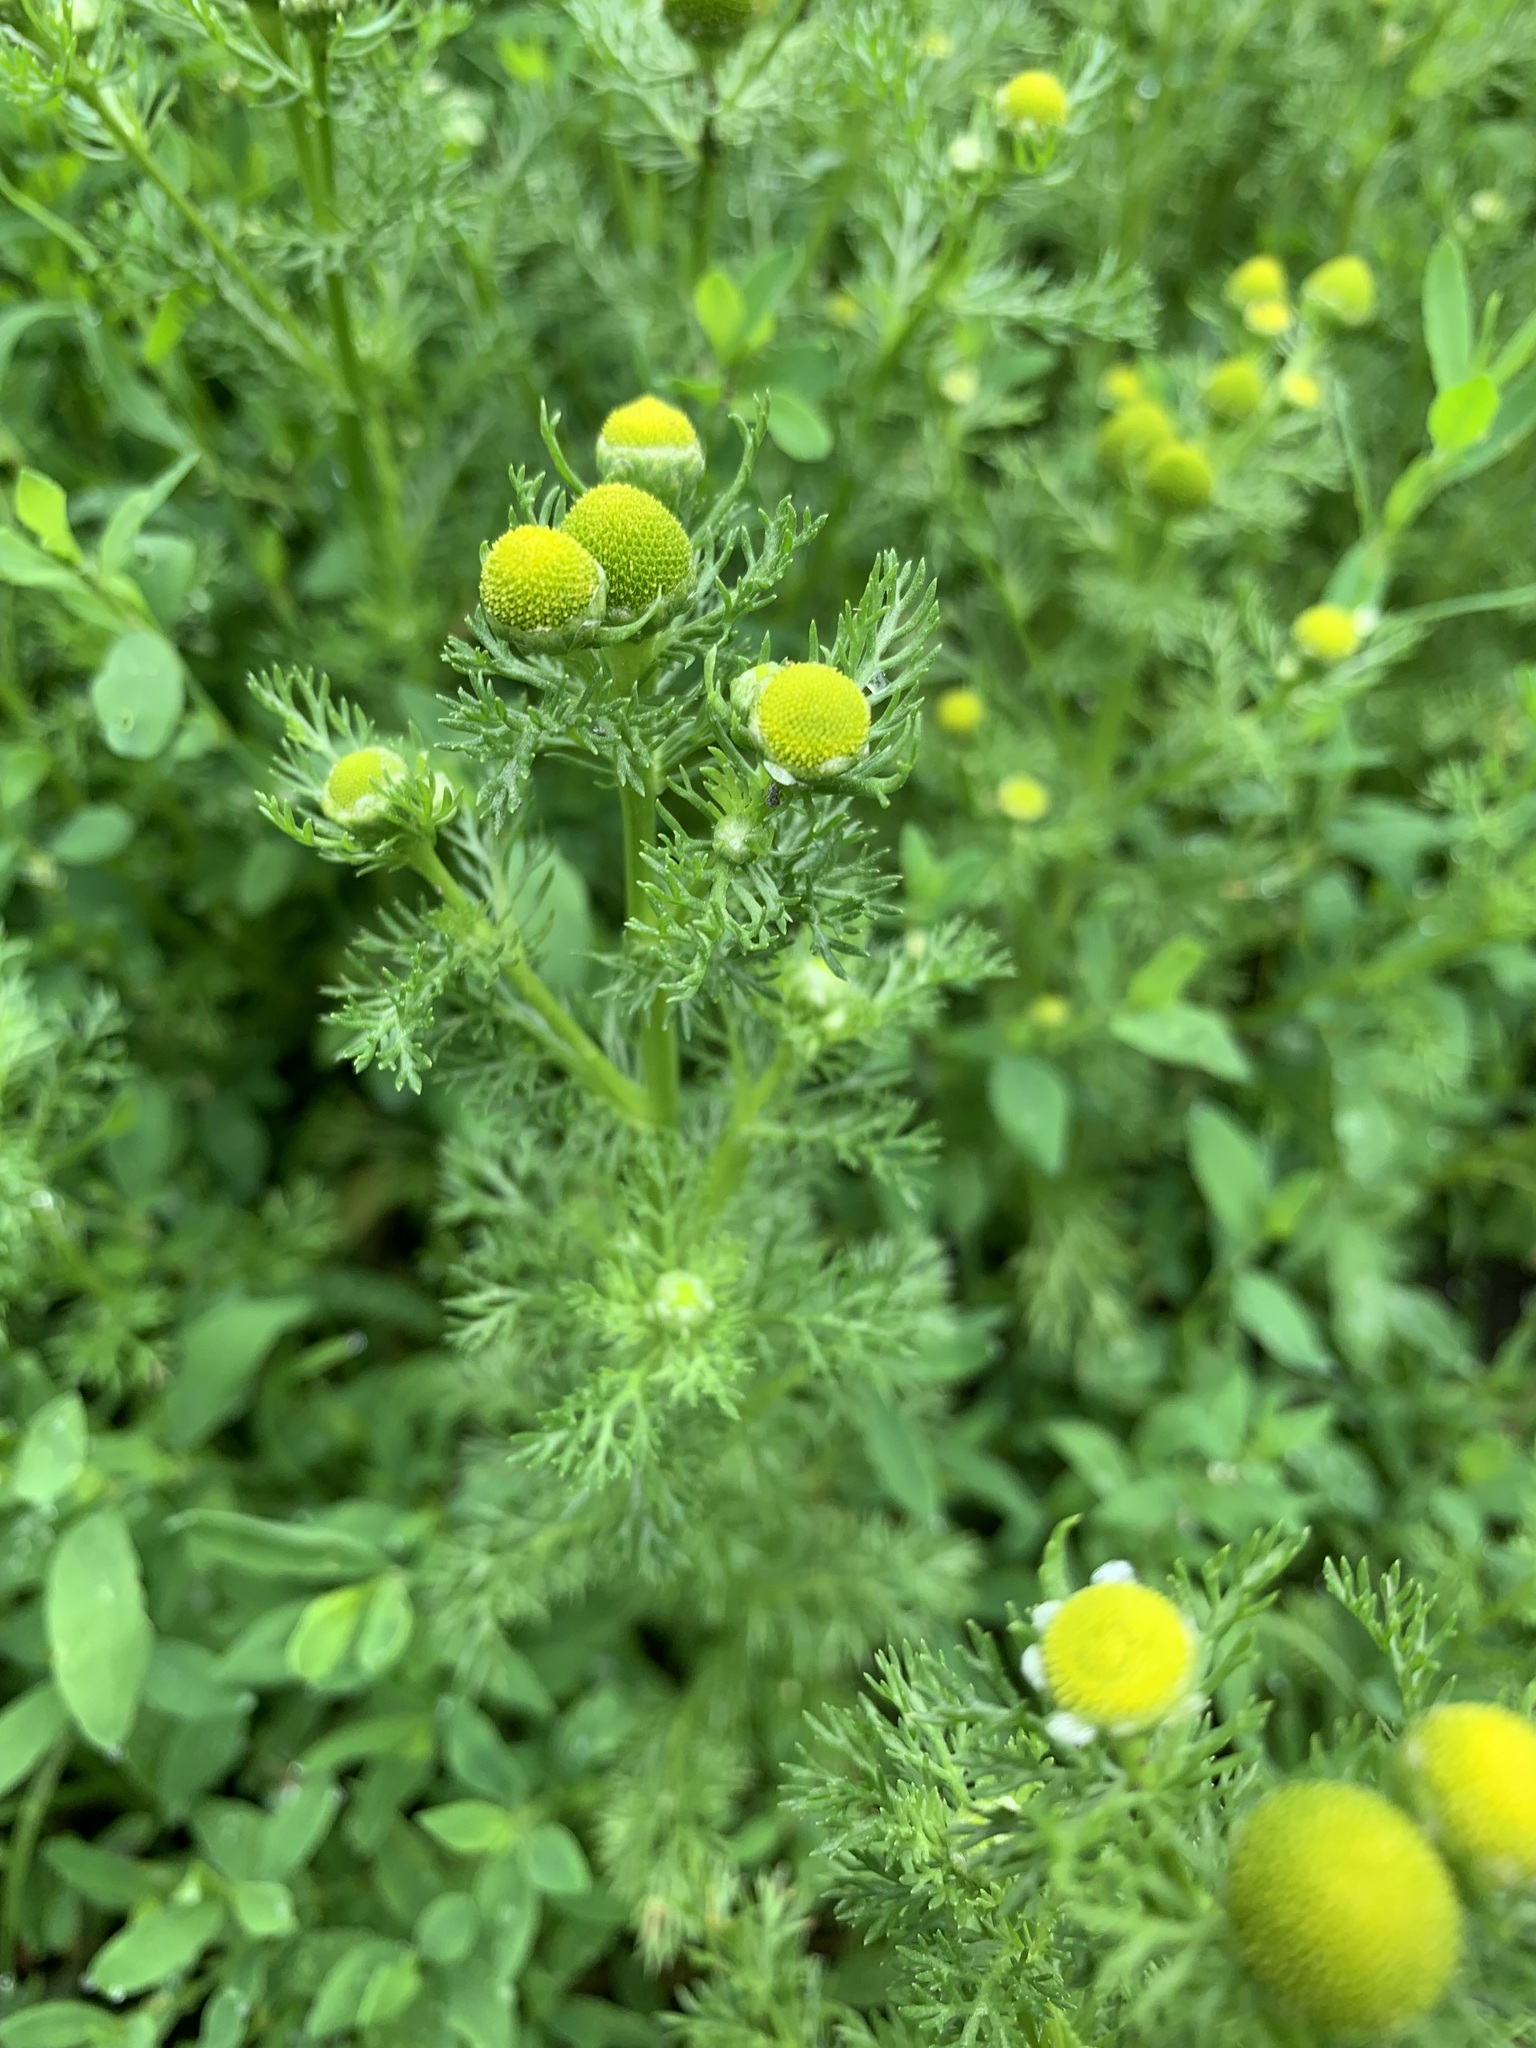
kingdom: Plantae
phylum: Tracheophyta
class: Magnoliopsida
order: Asterales
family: Asteraceae
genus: Matricaria
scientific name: Matricaria discoidea
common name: Disc mayweed
